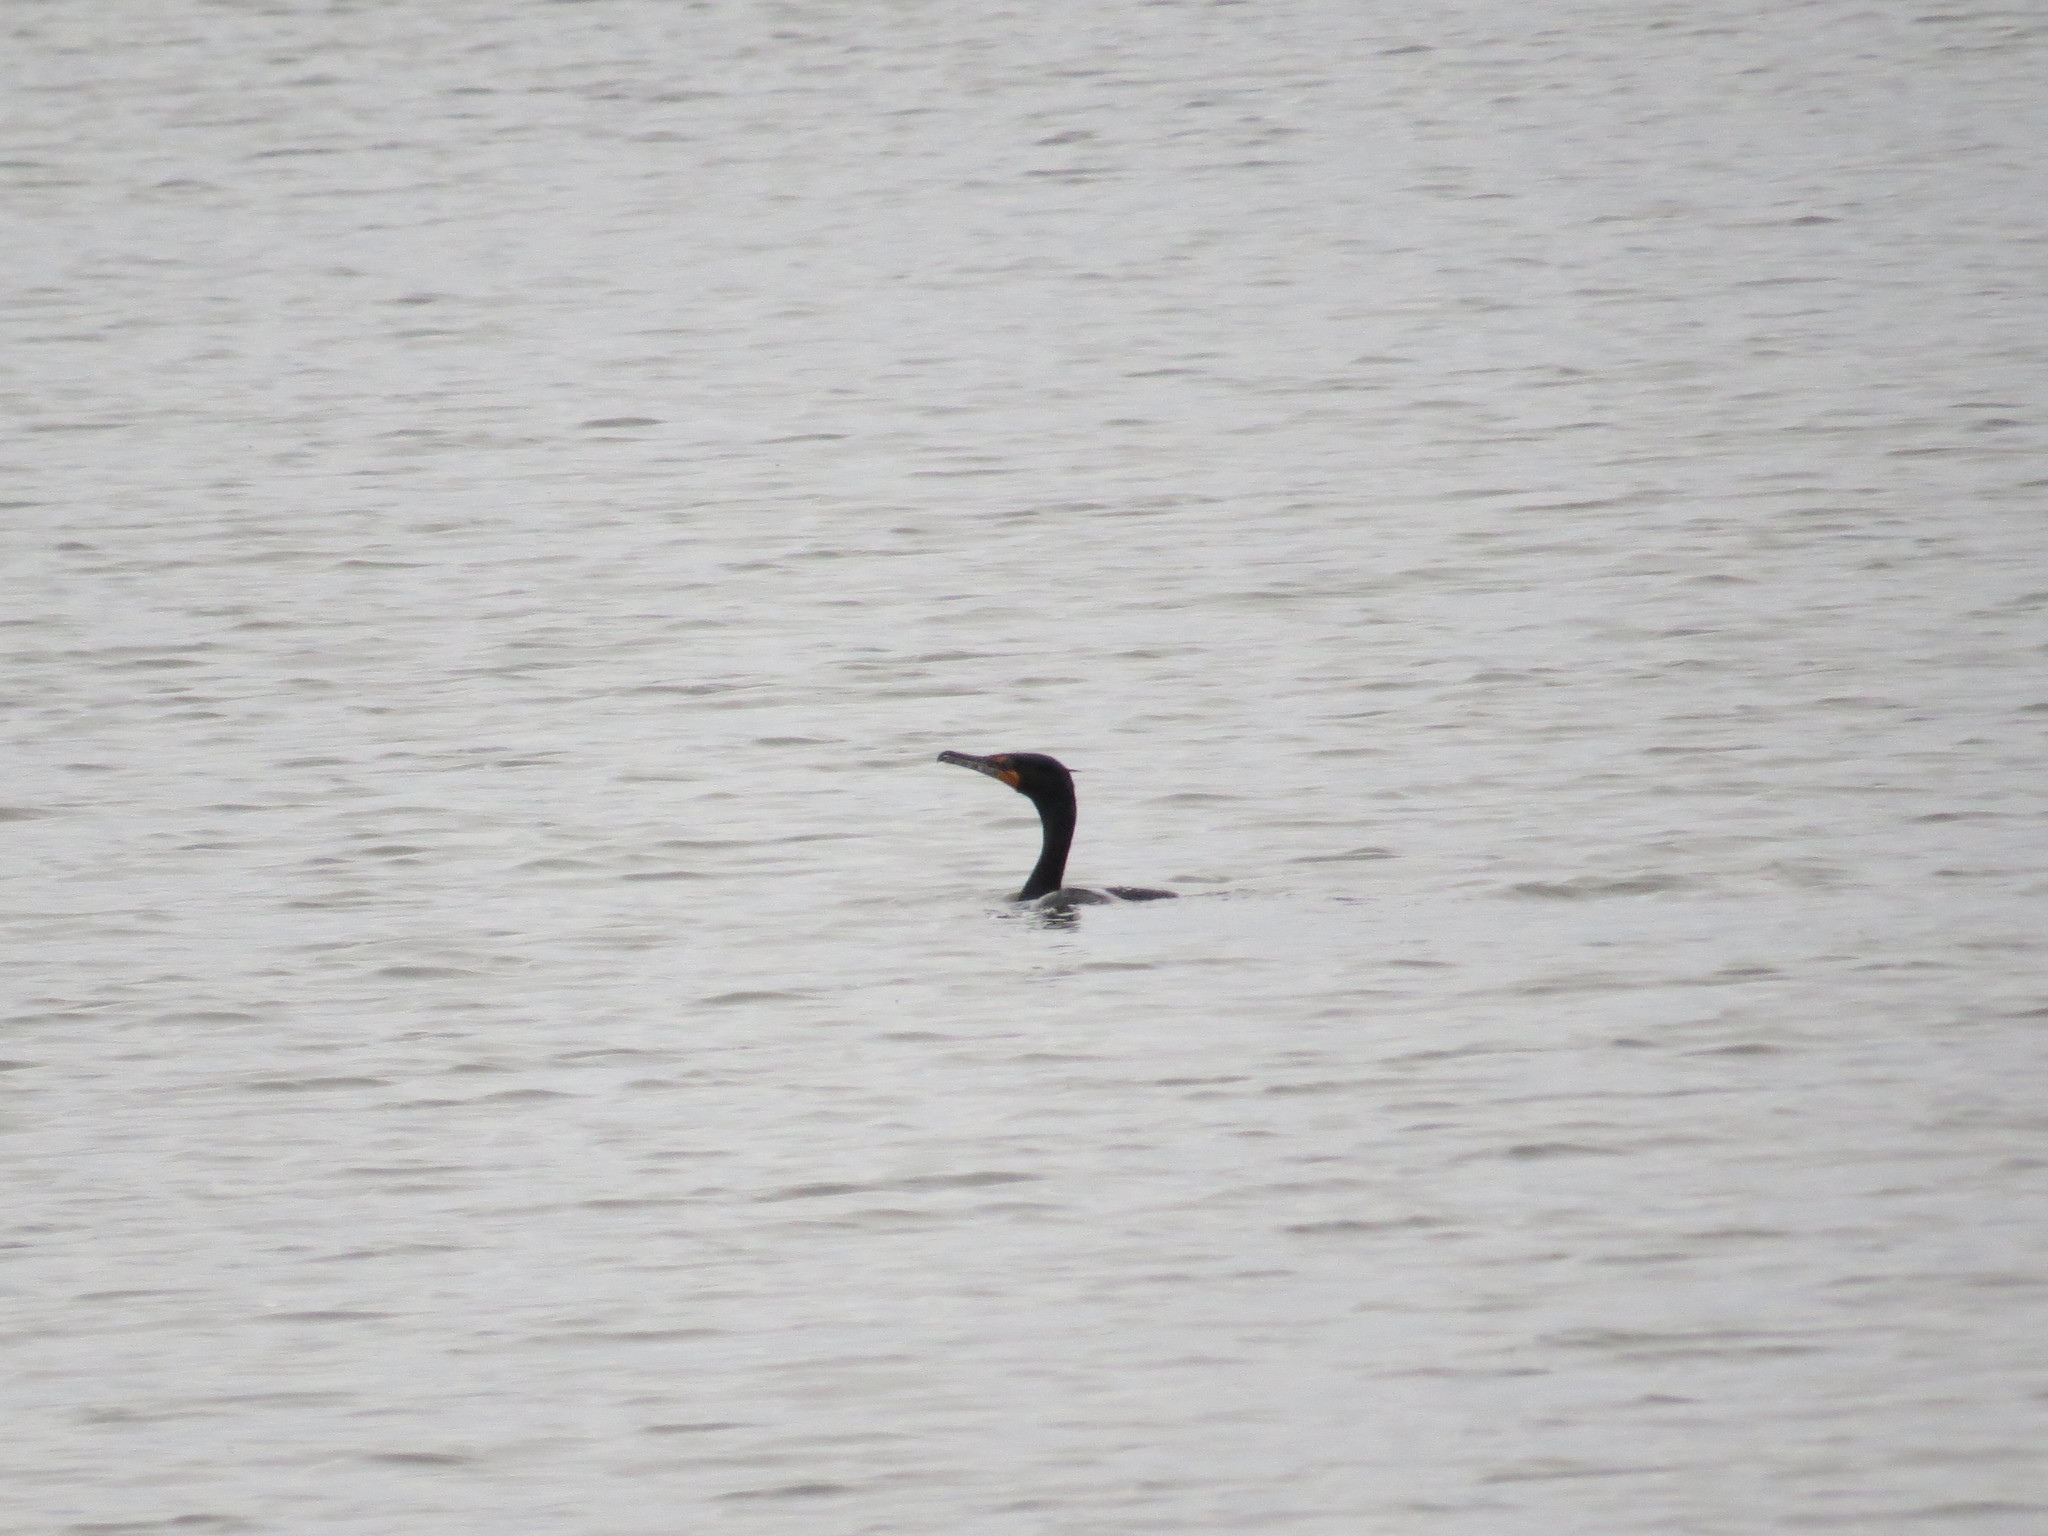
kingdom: Animalia
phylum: Chordata
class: Aves
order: Suliformes
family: Phalacrocoracidae
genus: Phalacrocorax
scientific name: Phalacrocorax auritus
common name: Double-crested cormorant
